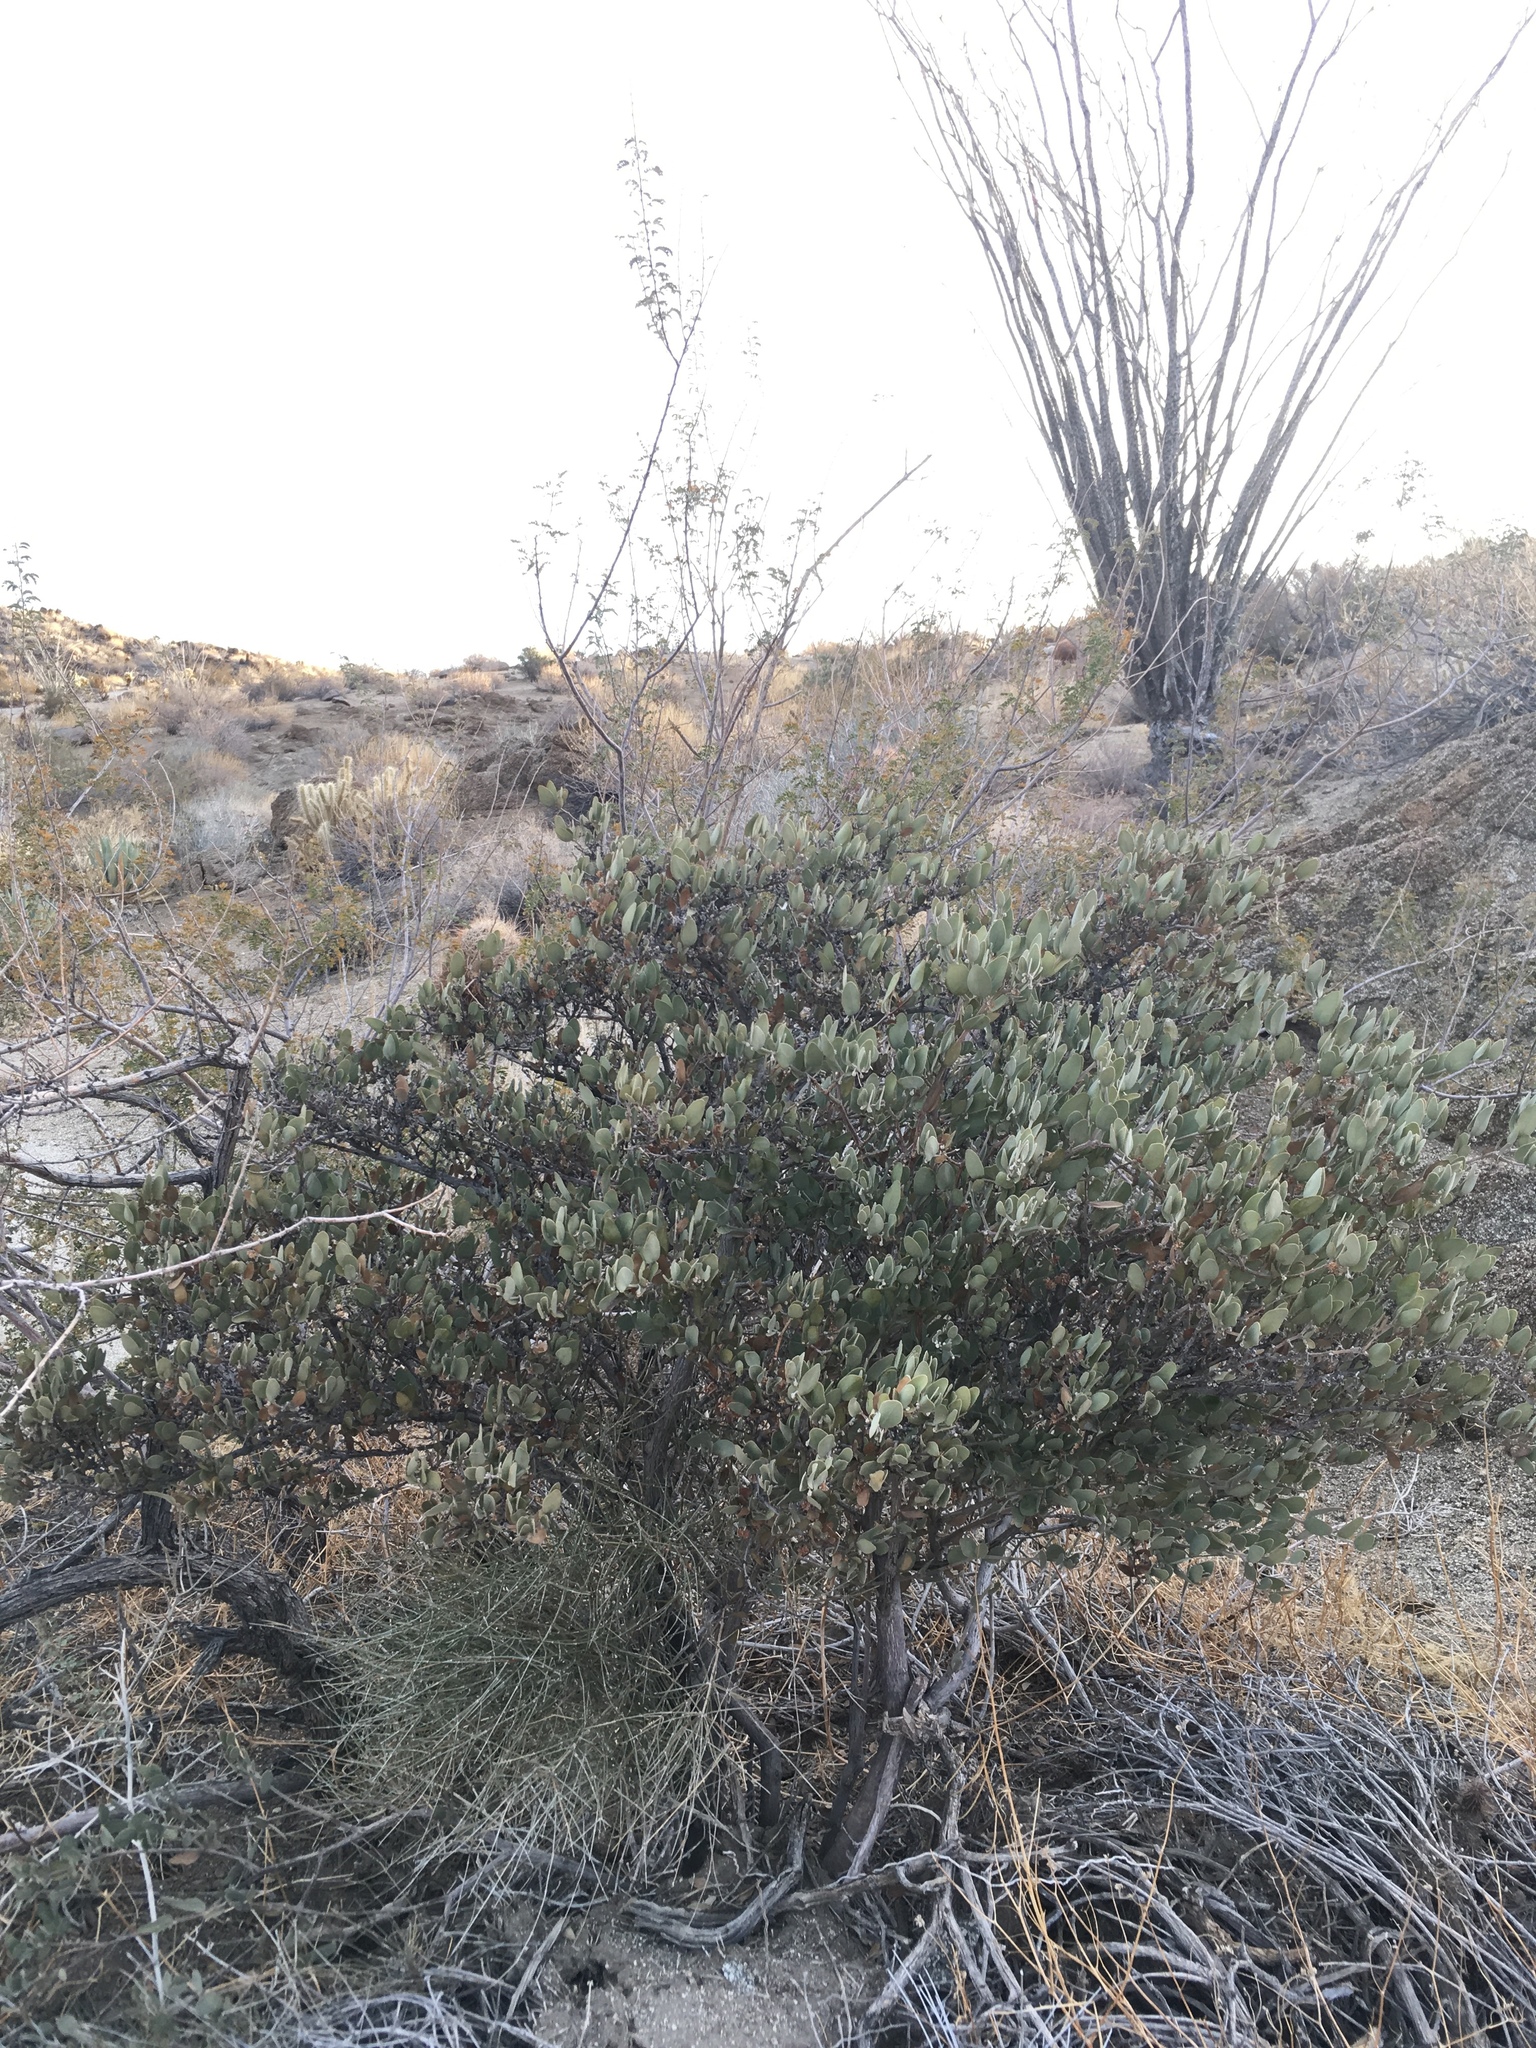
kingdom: Plantae
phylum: Tracheophyta
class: Magnoliopsida
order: Caryophyllales
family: Simmondsiaceae
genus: Simmondsia
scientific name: Simmondsia chinensis
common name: Jojoba
